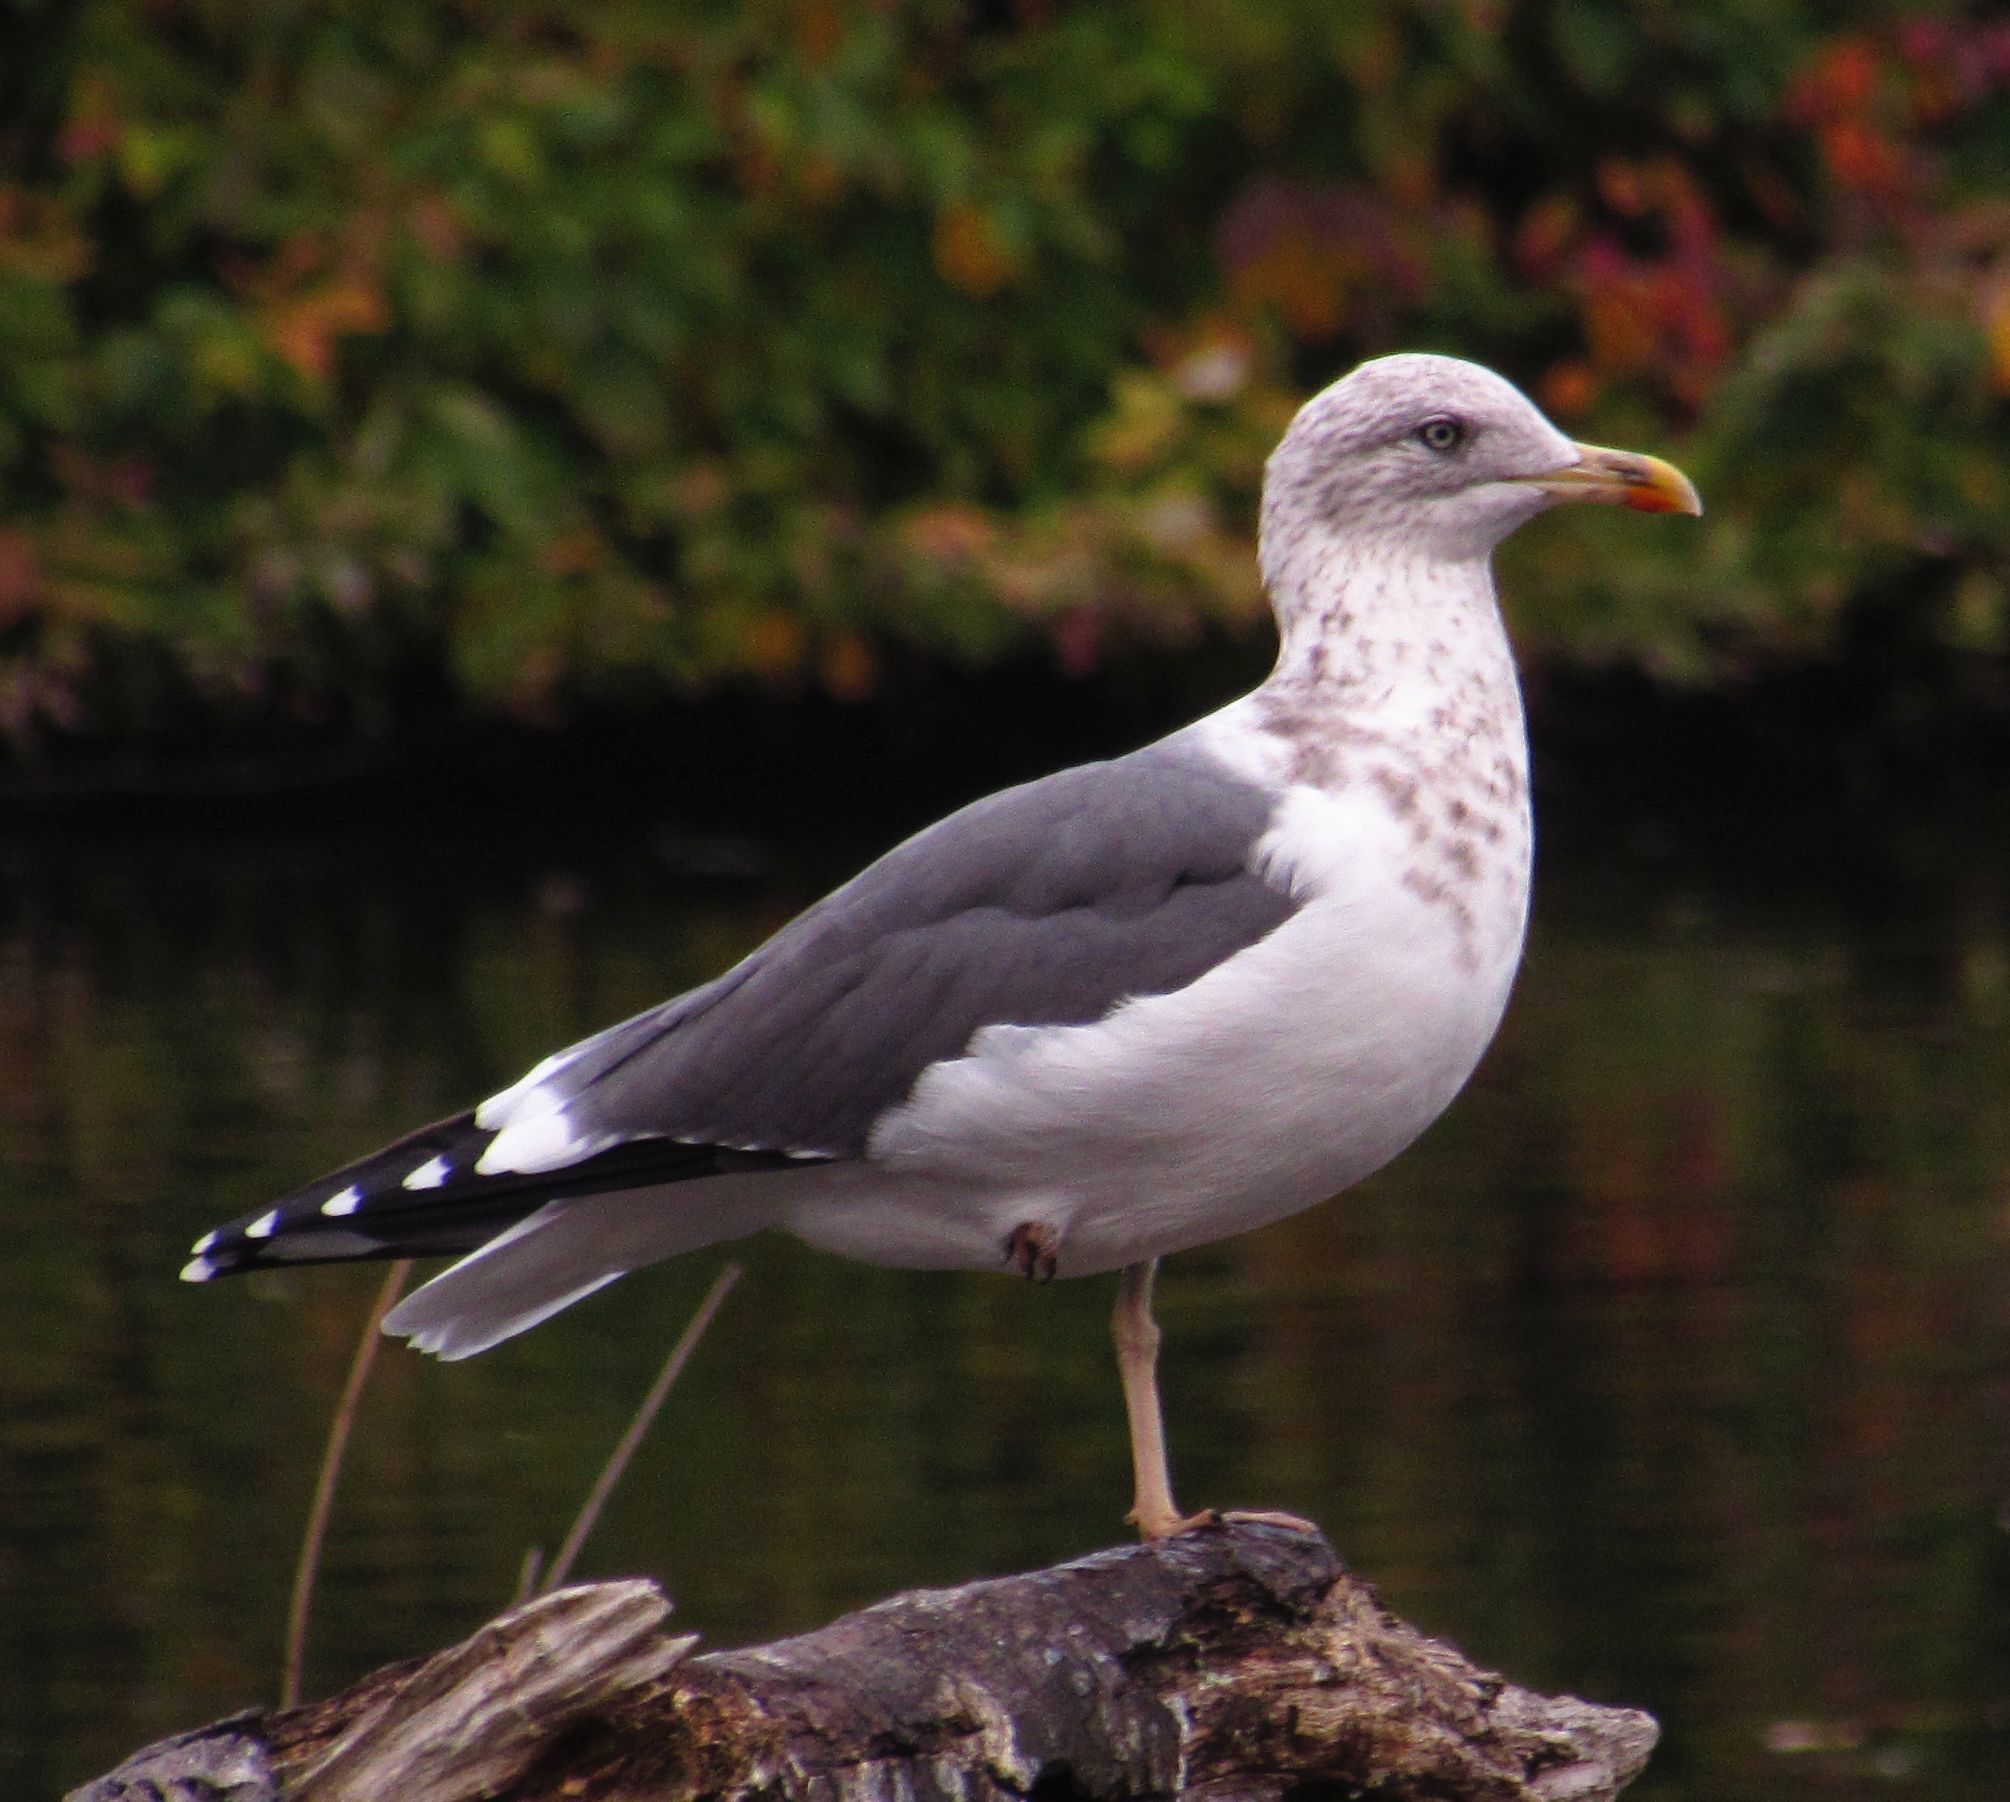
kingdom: Animalia
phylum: Chordata
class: Aves
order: Charadriiformes
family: Laridae
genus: Larus
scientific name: Larus fuscus
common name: Lesser black-backed gull
